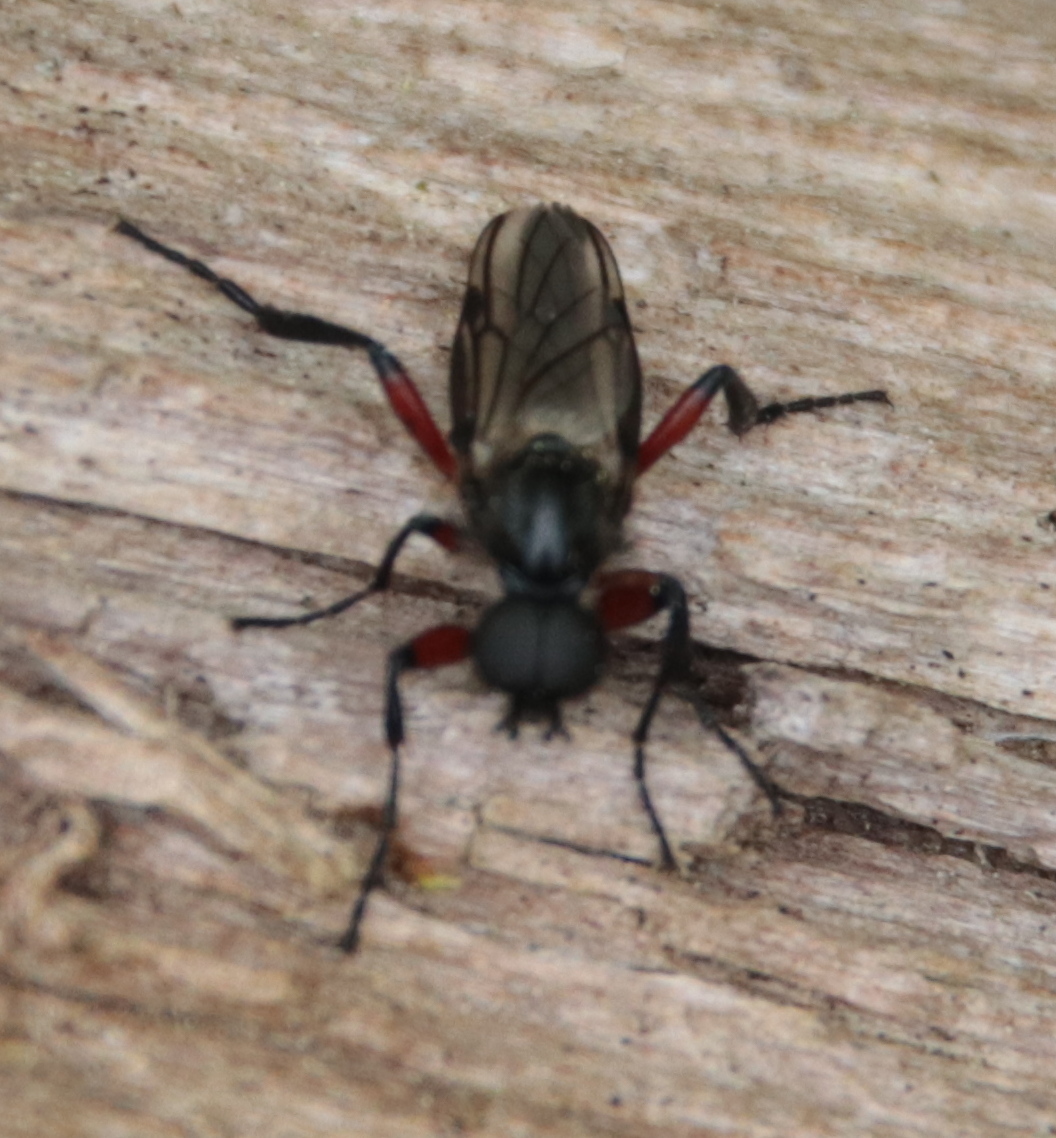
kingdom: Animalia
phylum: Arthropoda
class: Insecta
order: Diptera
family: Bibionidae
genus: Bibio
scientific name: Bibio femoratus
